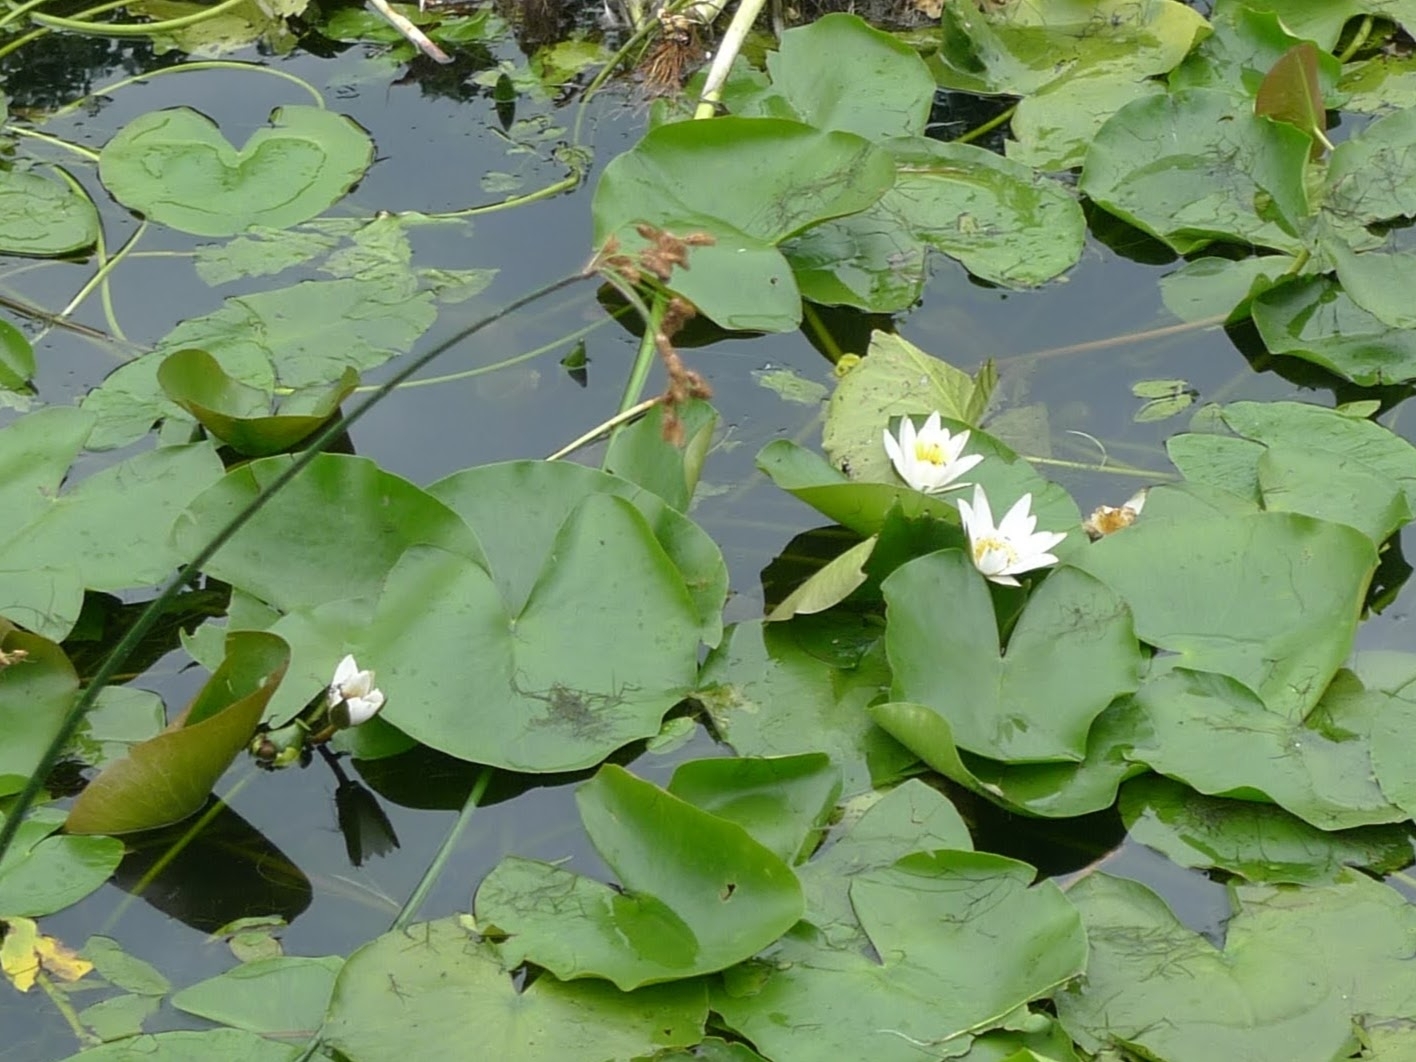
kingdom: Plantae
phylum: Tracheophyta
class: Magnoliopsida
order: Nymphaeales
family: Nymphaeaceae
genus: Nymphaea
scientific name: Nymphaea alba
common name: White water-lily
